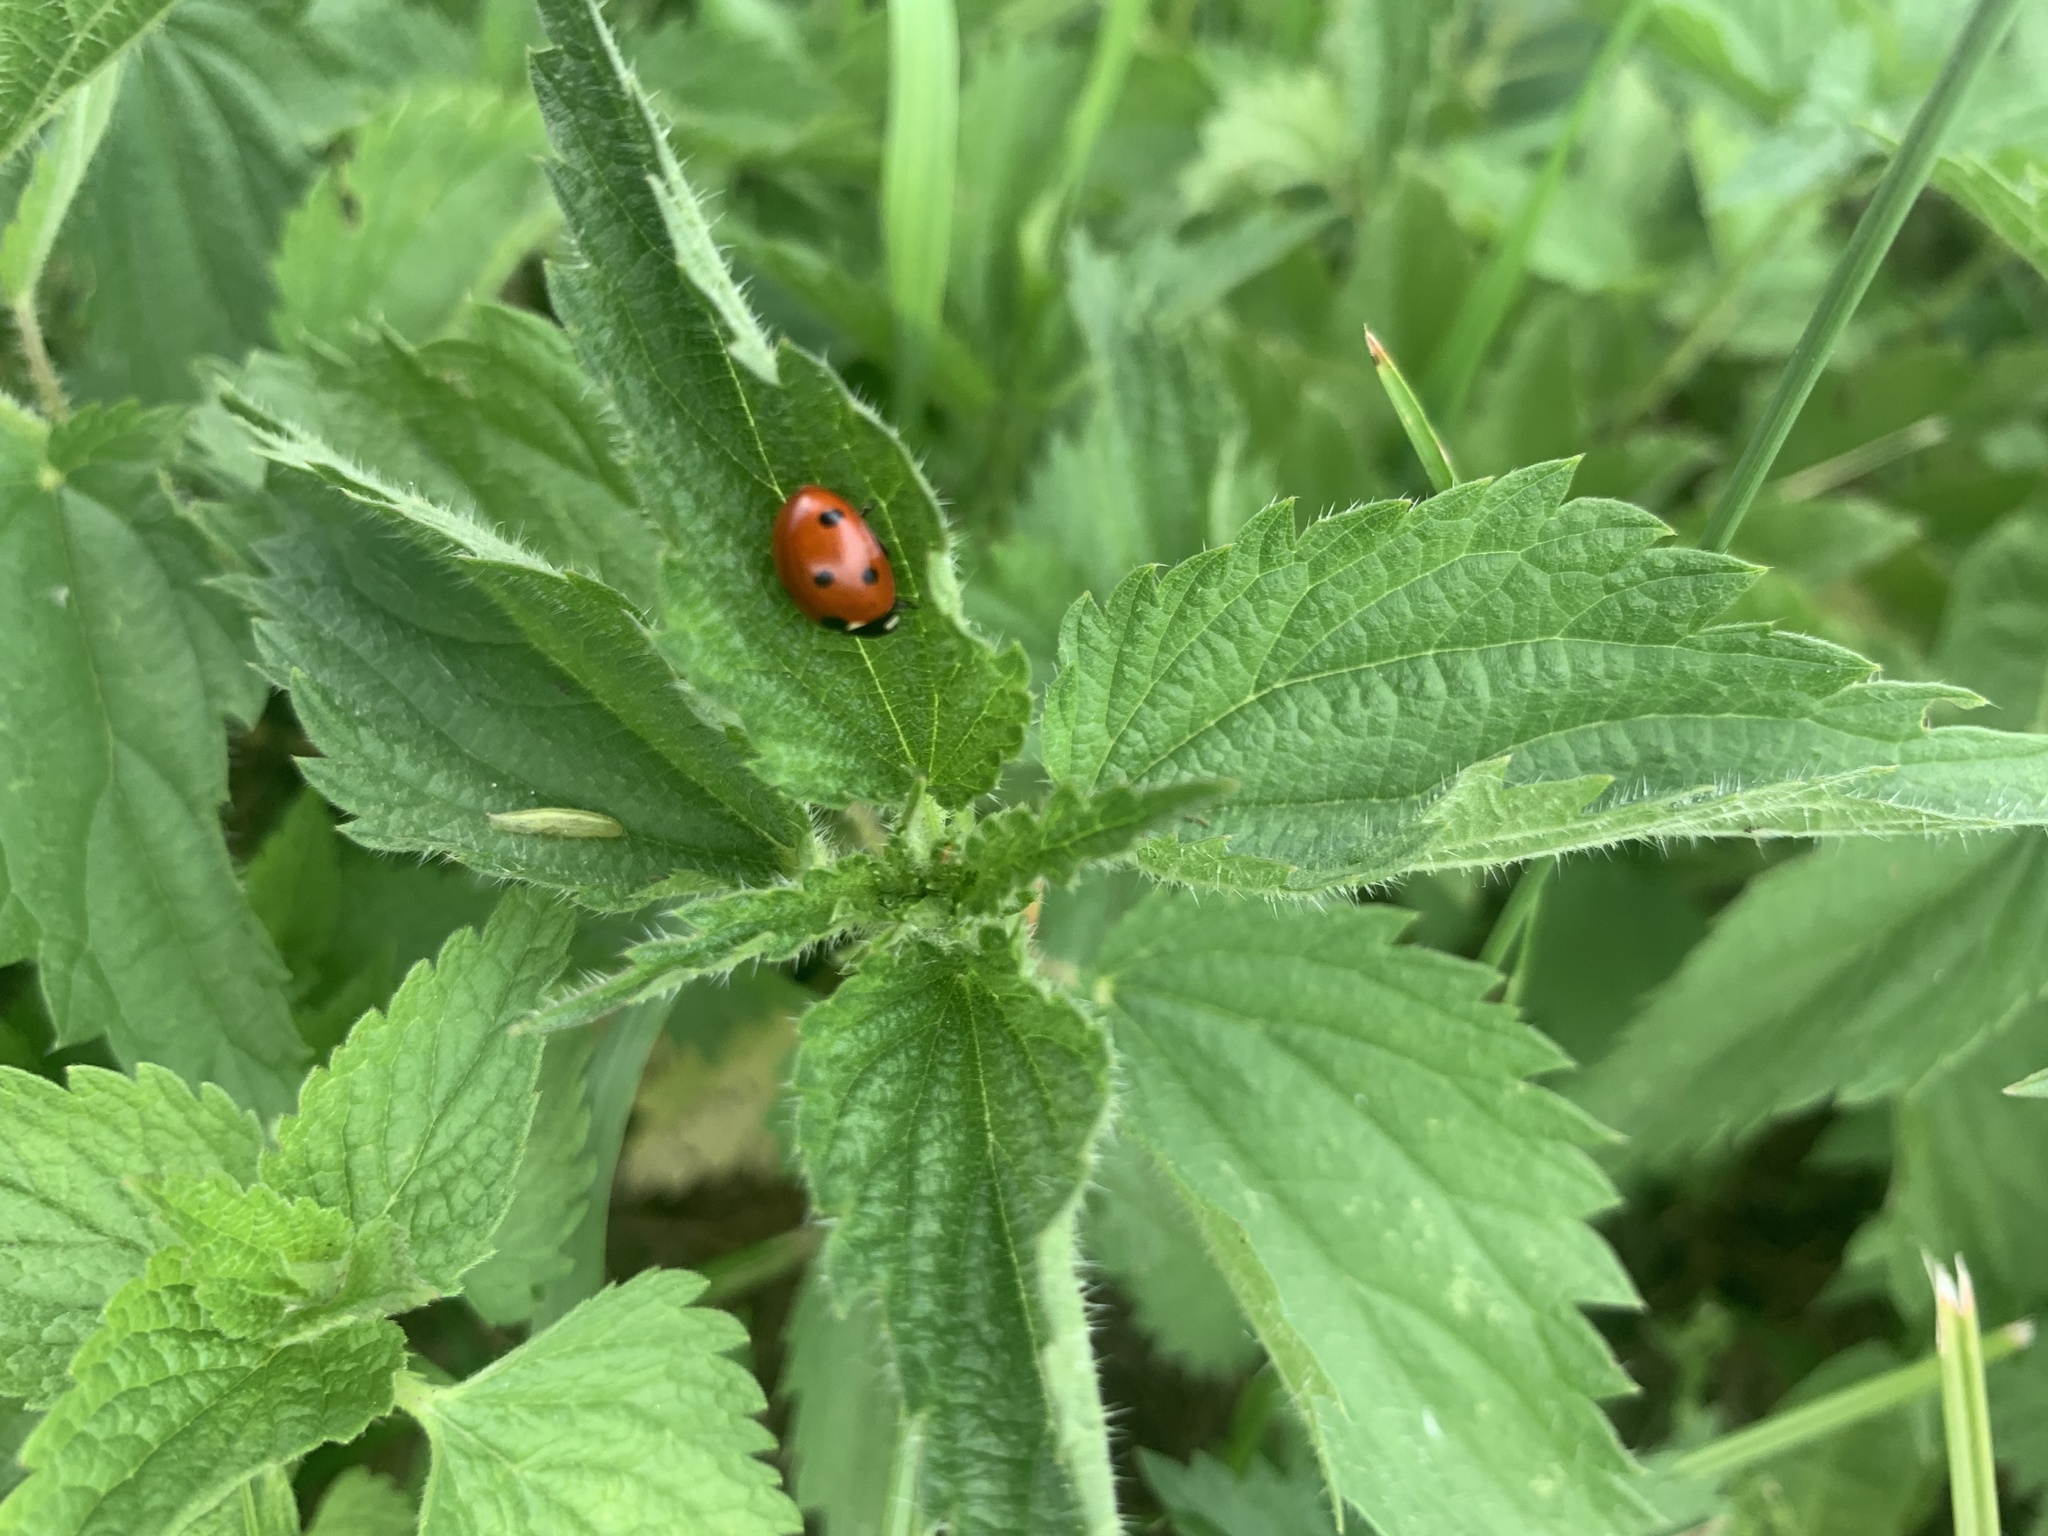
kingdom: Animalia
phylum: Arthropoda
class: Insecta
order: Coleoptera
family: Coccinellidae
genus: Coccinella
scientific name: Coccinella septempunctata
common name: Sevenspotted lady beetle
